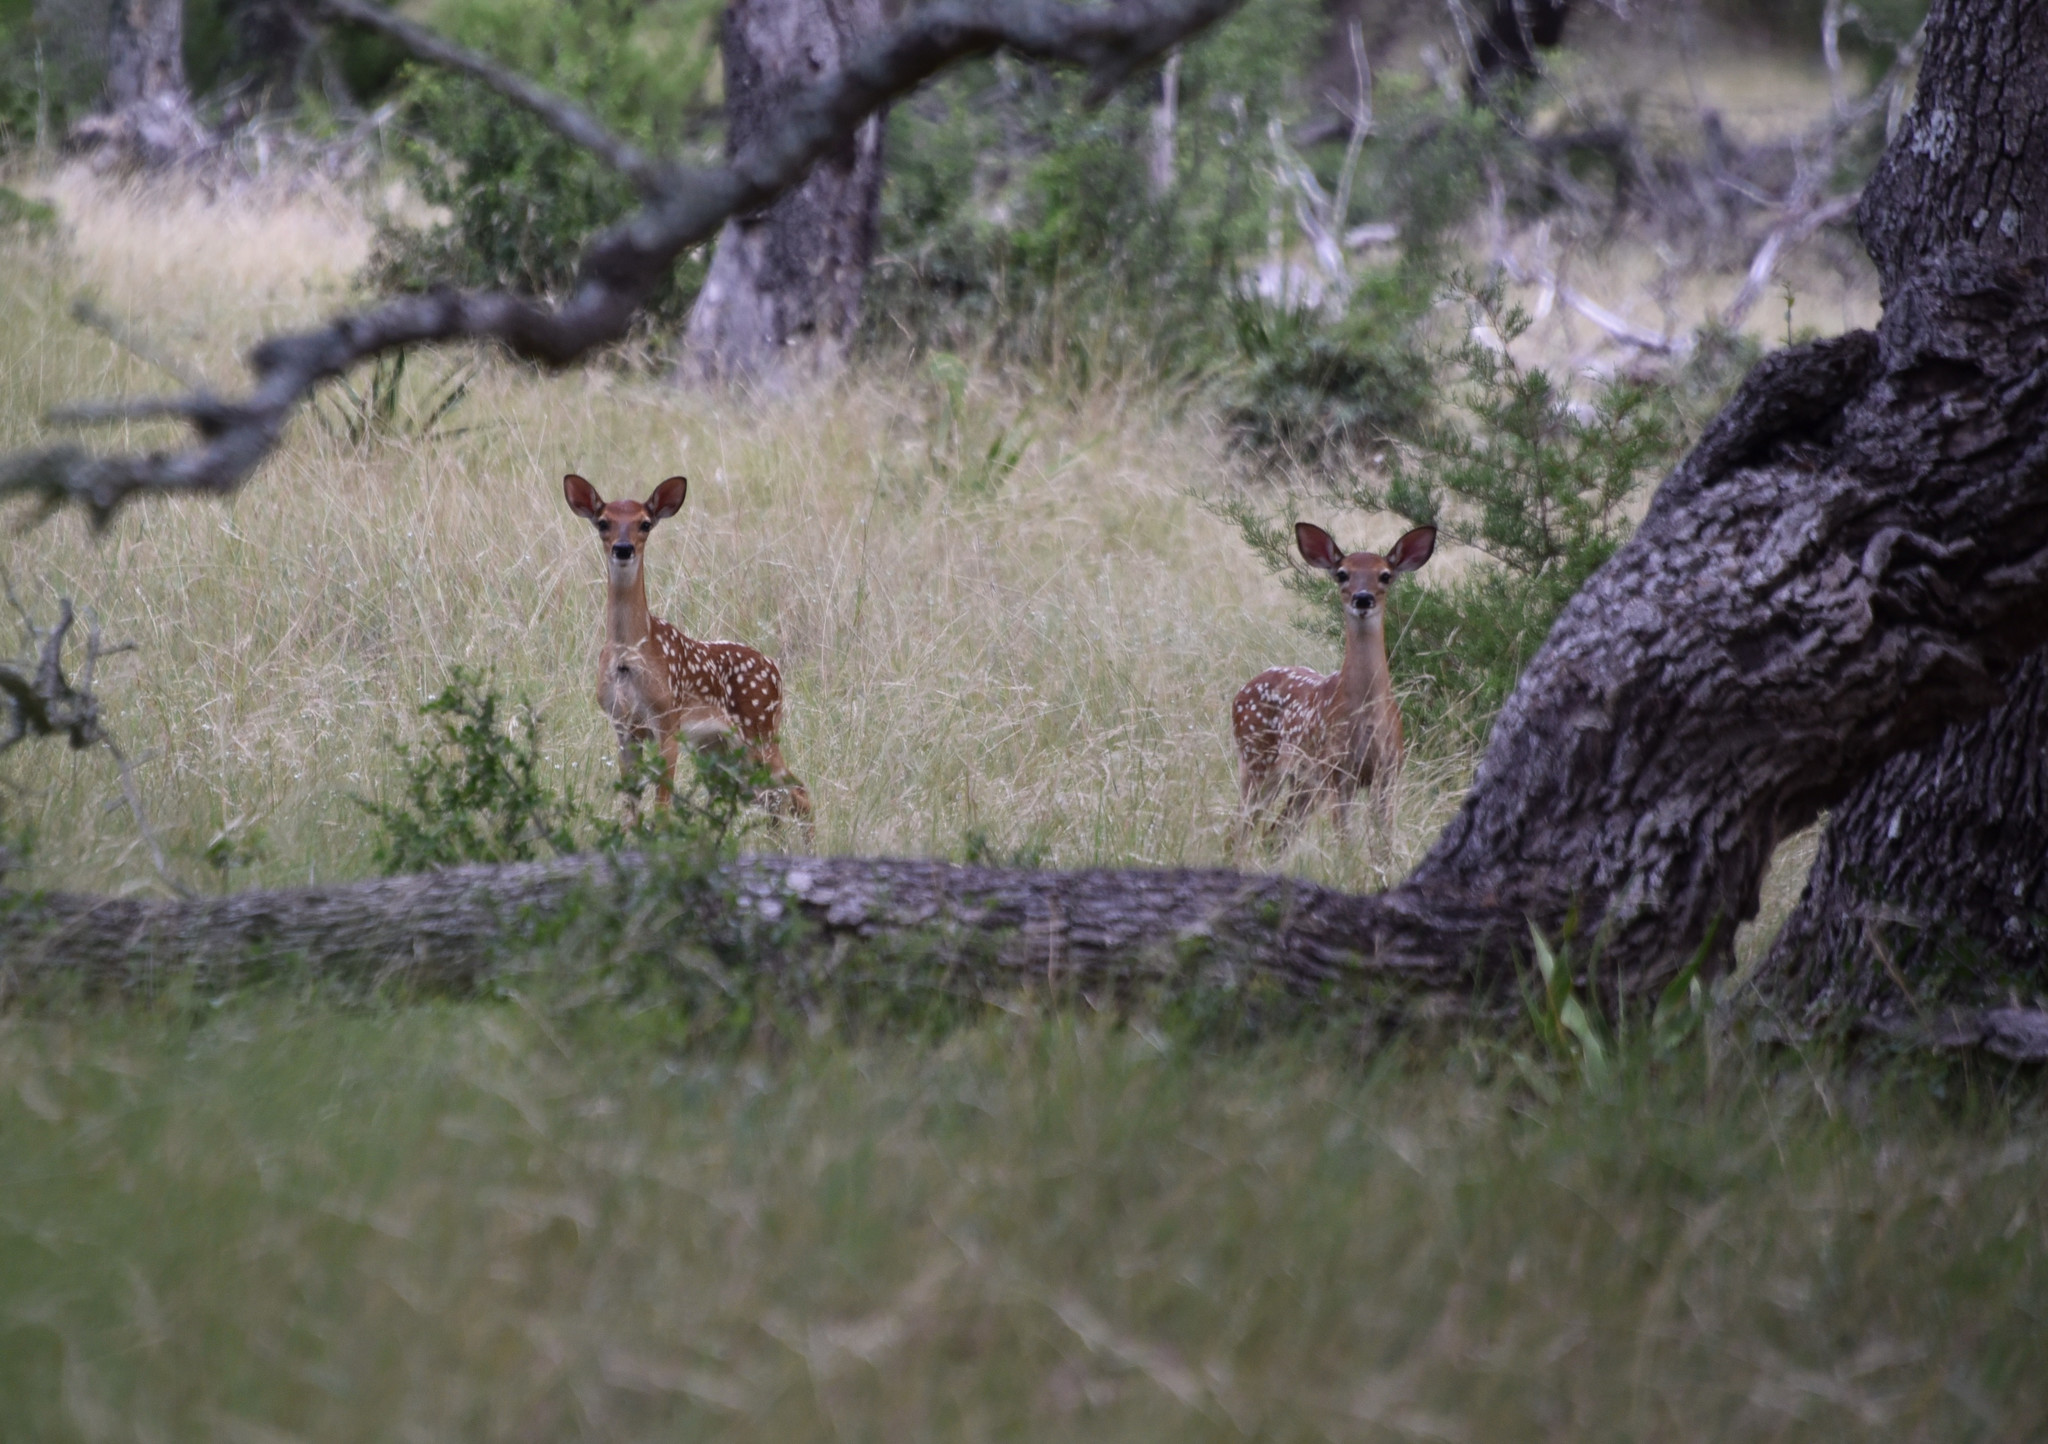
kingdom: Animalia
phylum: Chordata
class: Mammalia
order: Artiodactyla
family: Cervidae
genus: Odocoileus
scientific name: Odocoileus virginianus
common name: White-tailed deer
